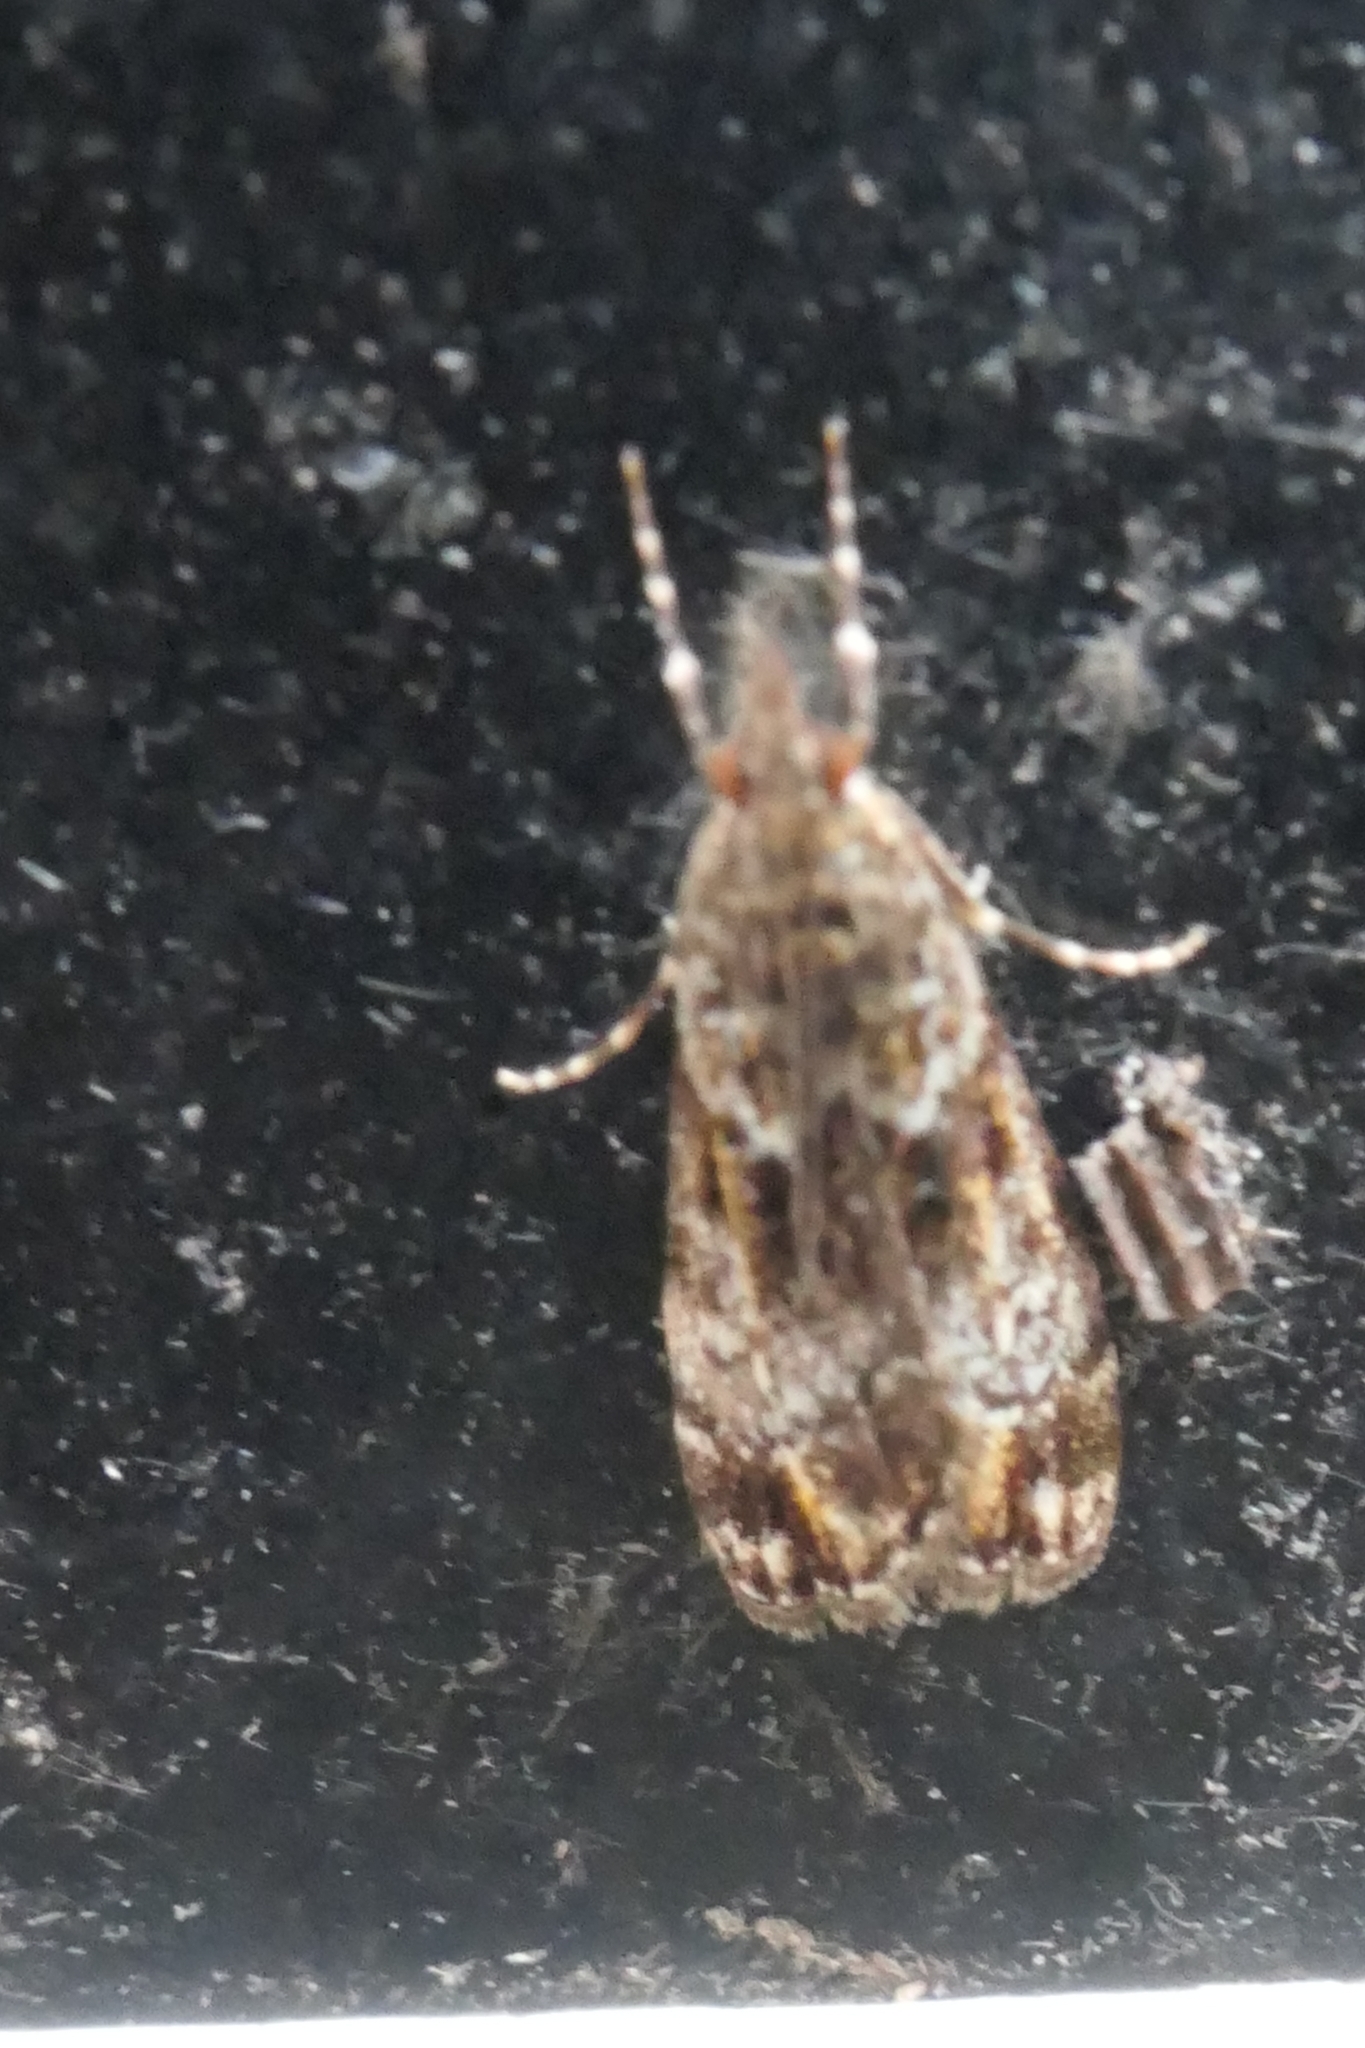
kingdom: Animalia
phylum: Arthropoda
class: Insecta
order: Lepidoptera
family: Crambidae
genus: Eudonia
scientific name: Eudonia minualis
